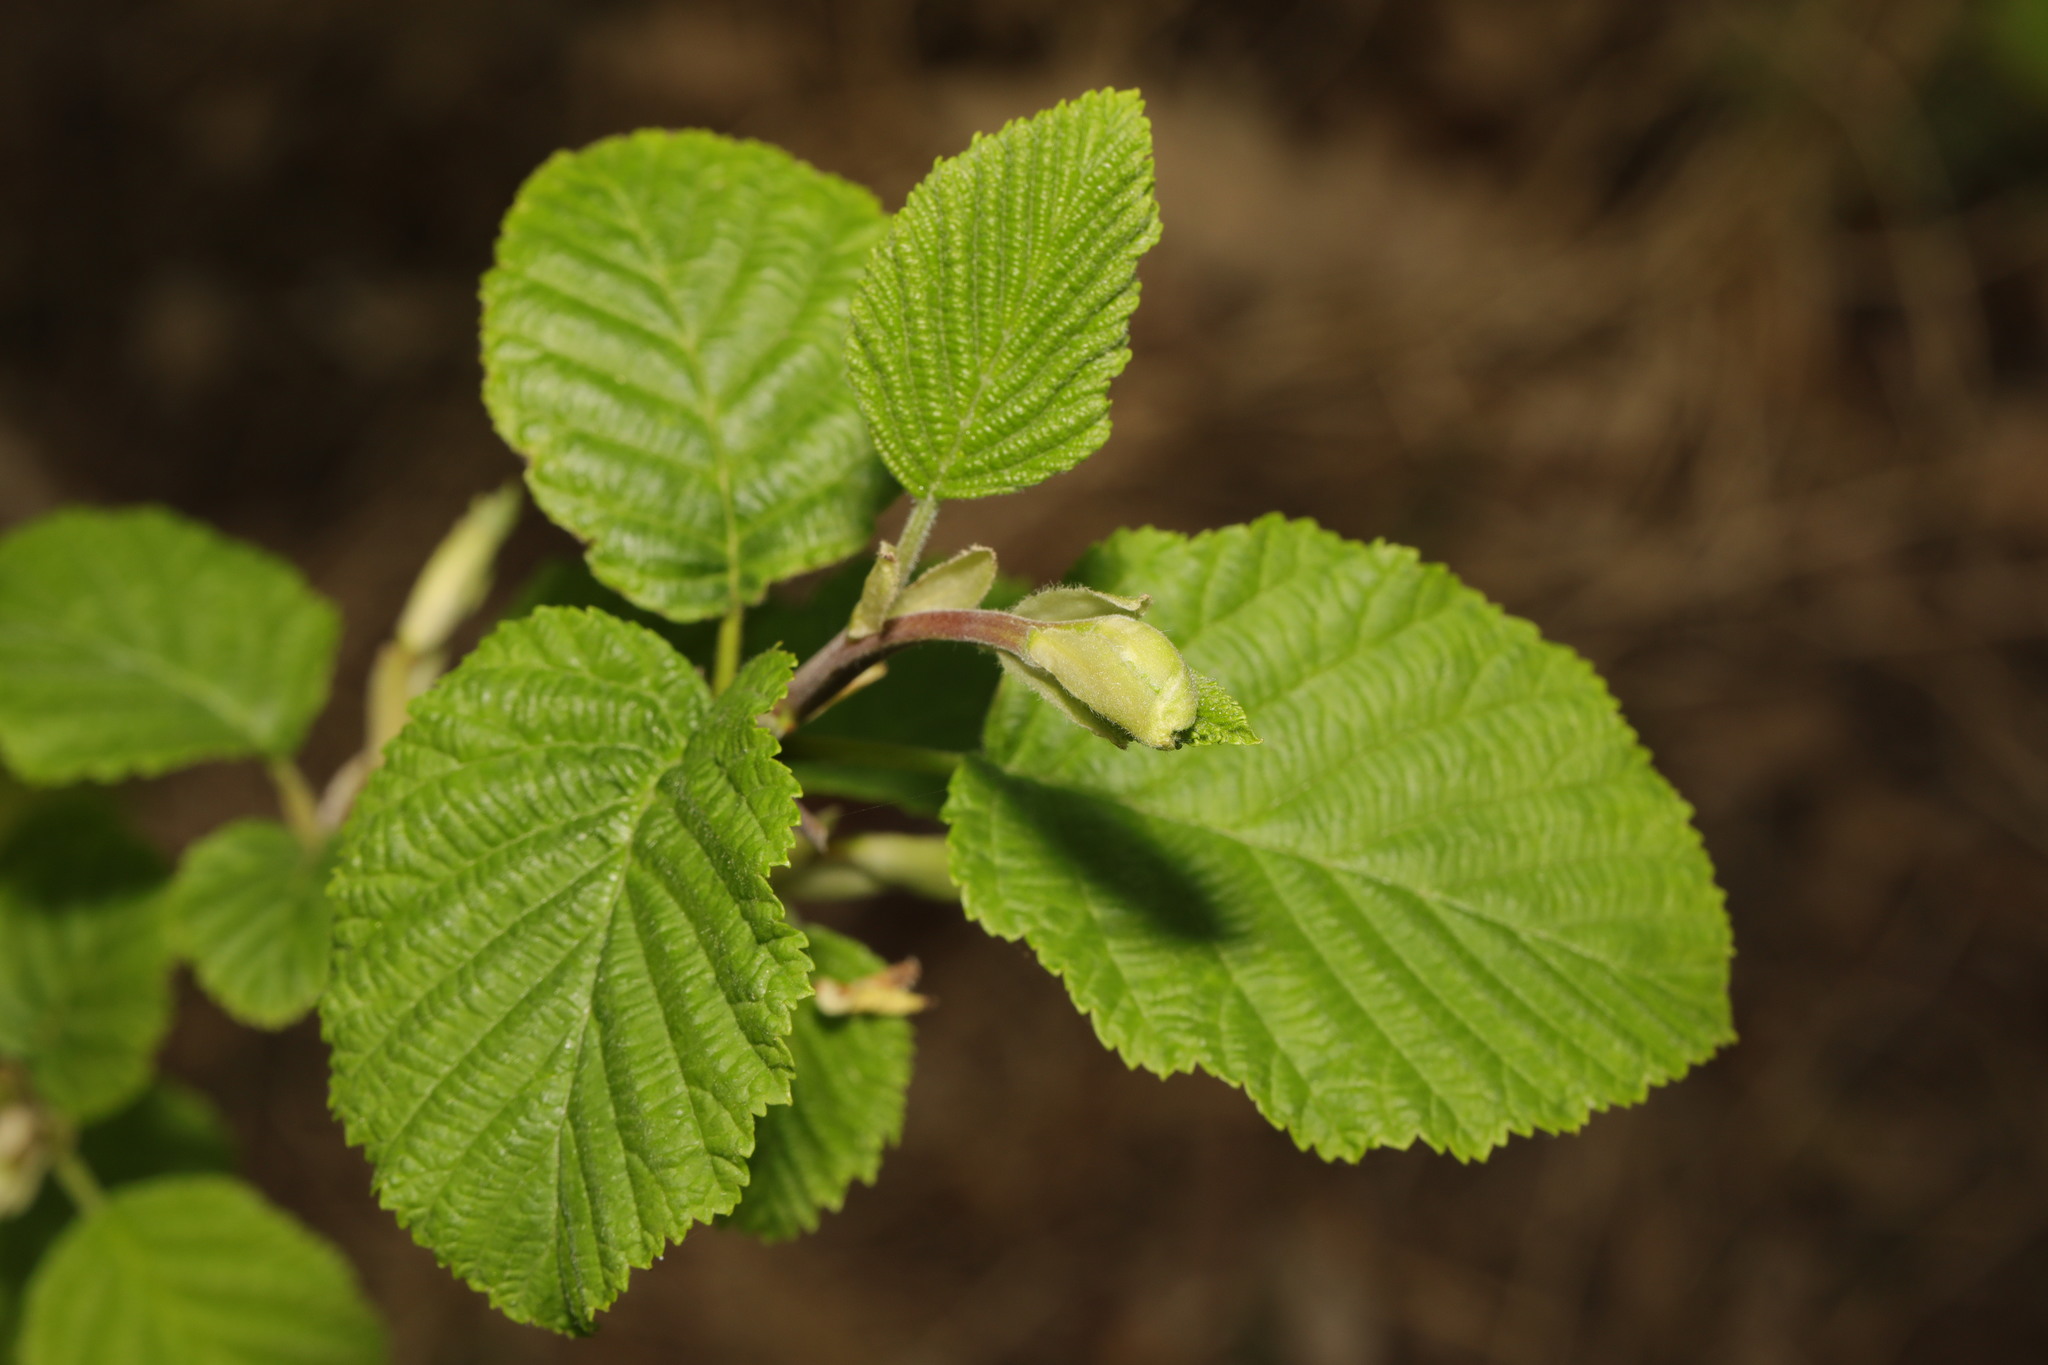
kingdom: Plantae
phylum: Tracheophyta
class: Magnoliopsida
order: Fagales
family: Betulaceae
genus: Corylus
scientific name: Corylus avellana
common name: European hazel
